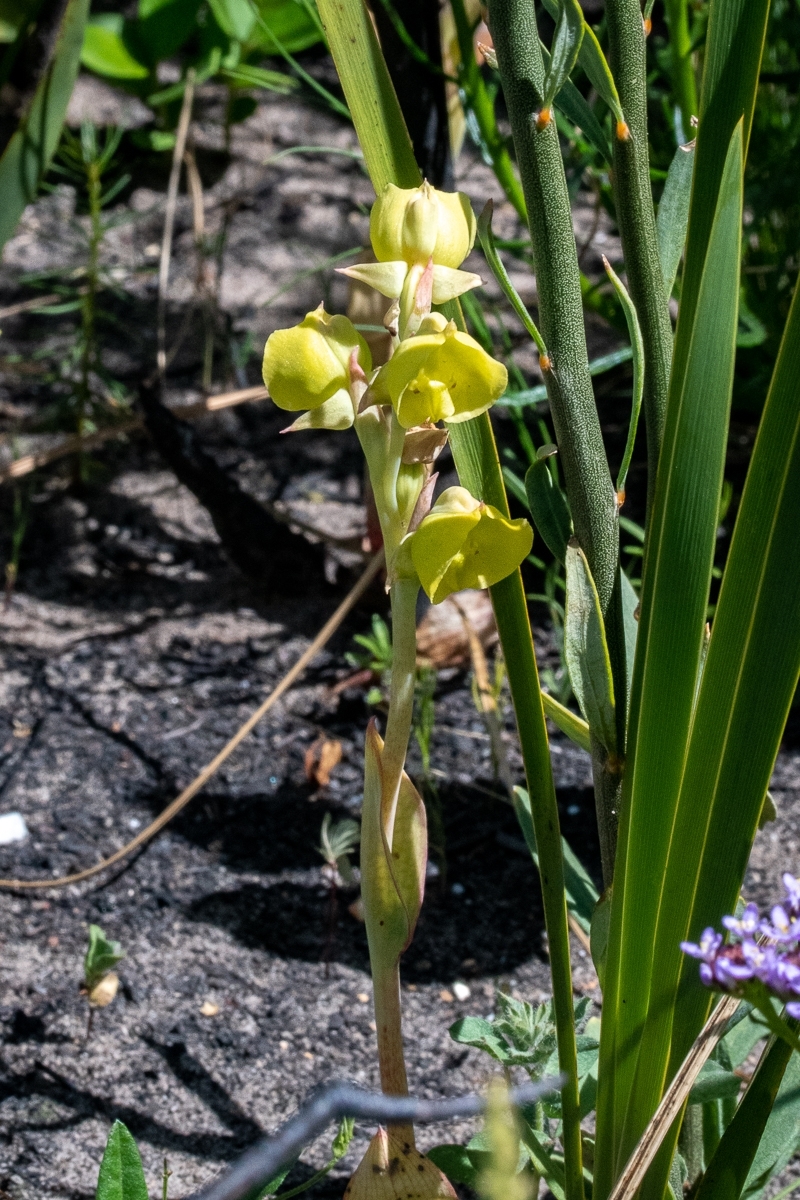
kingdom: Plantae
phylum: Tracheophyta
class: Liliopsida
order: Asparagales
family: Orchidaceae
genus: Pterygodium
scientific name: Pterygodium catholicum
